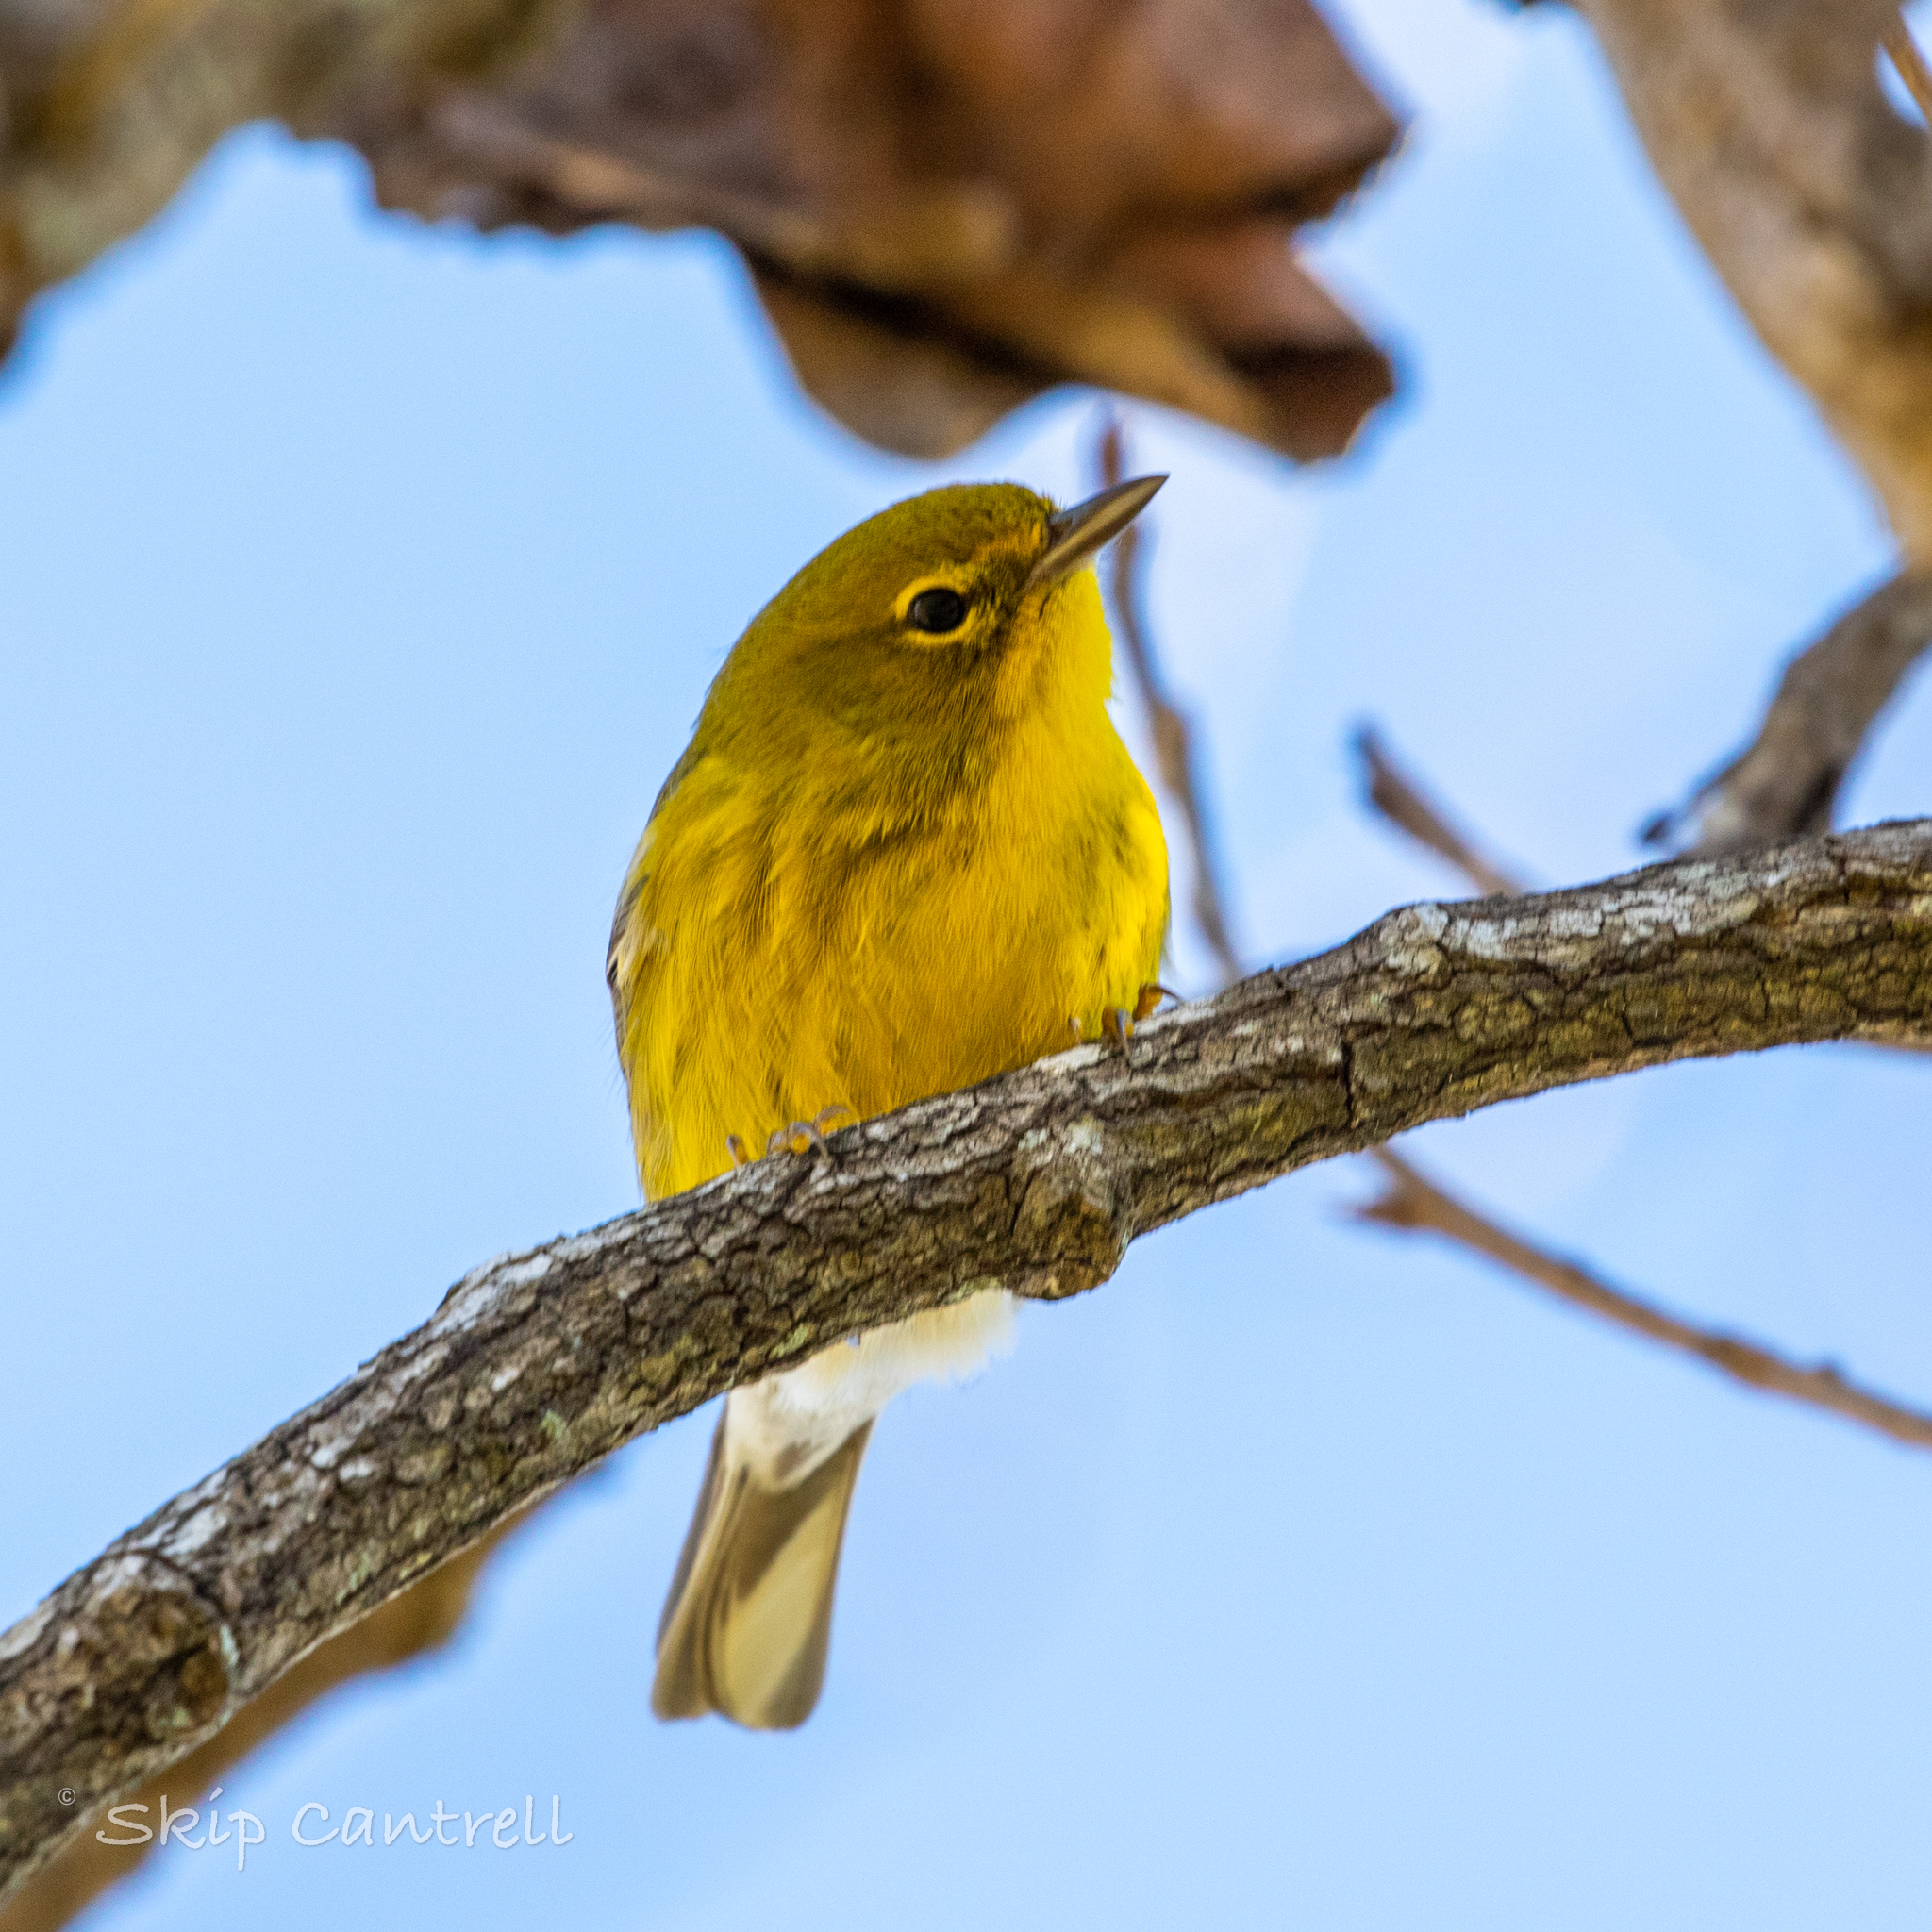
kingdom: Animalia
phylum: Chordata
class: Aves
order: Passeriformes
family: Parulidae
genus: Setophaga
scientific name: Setophaga pinus
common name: Pine warbler
